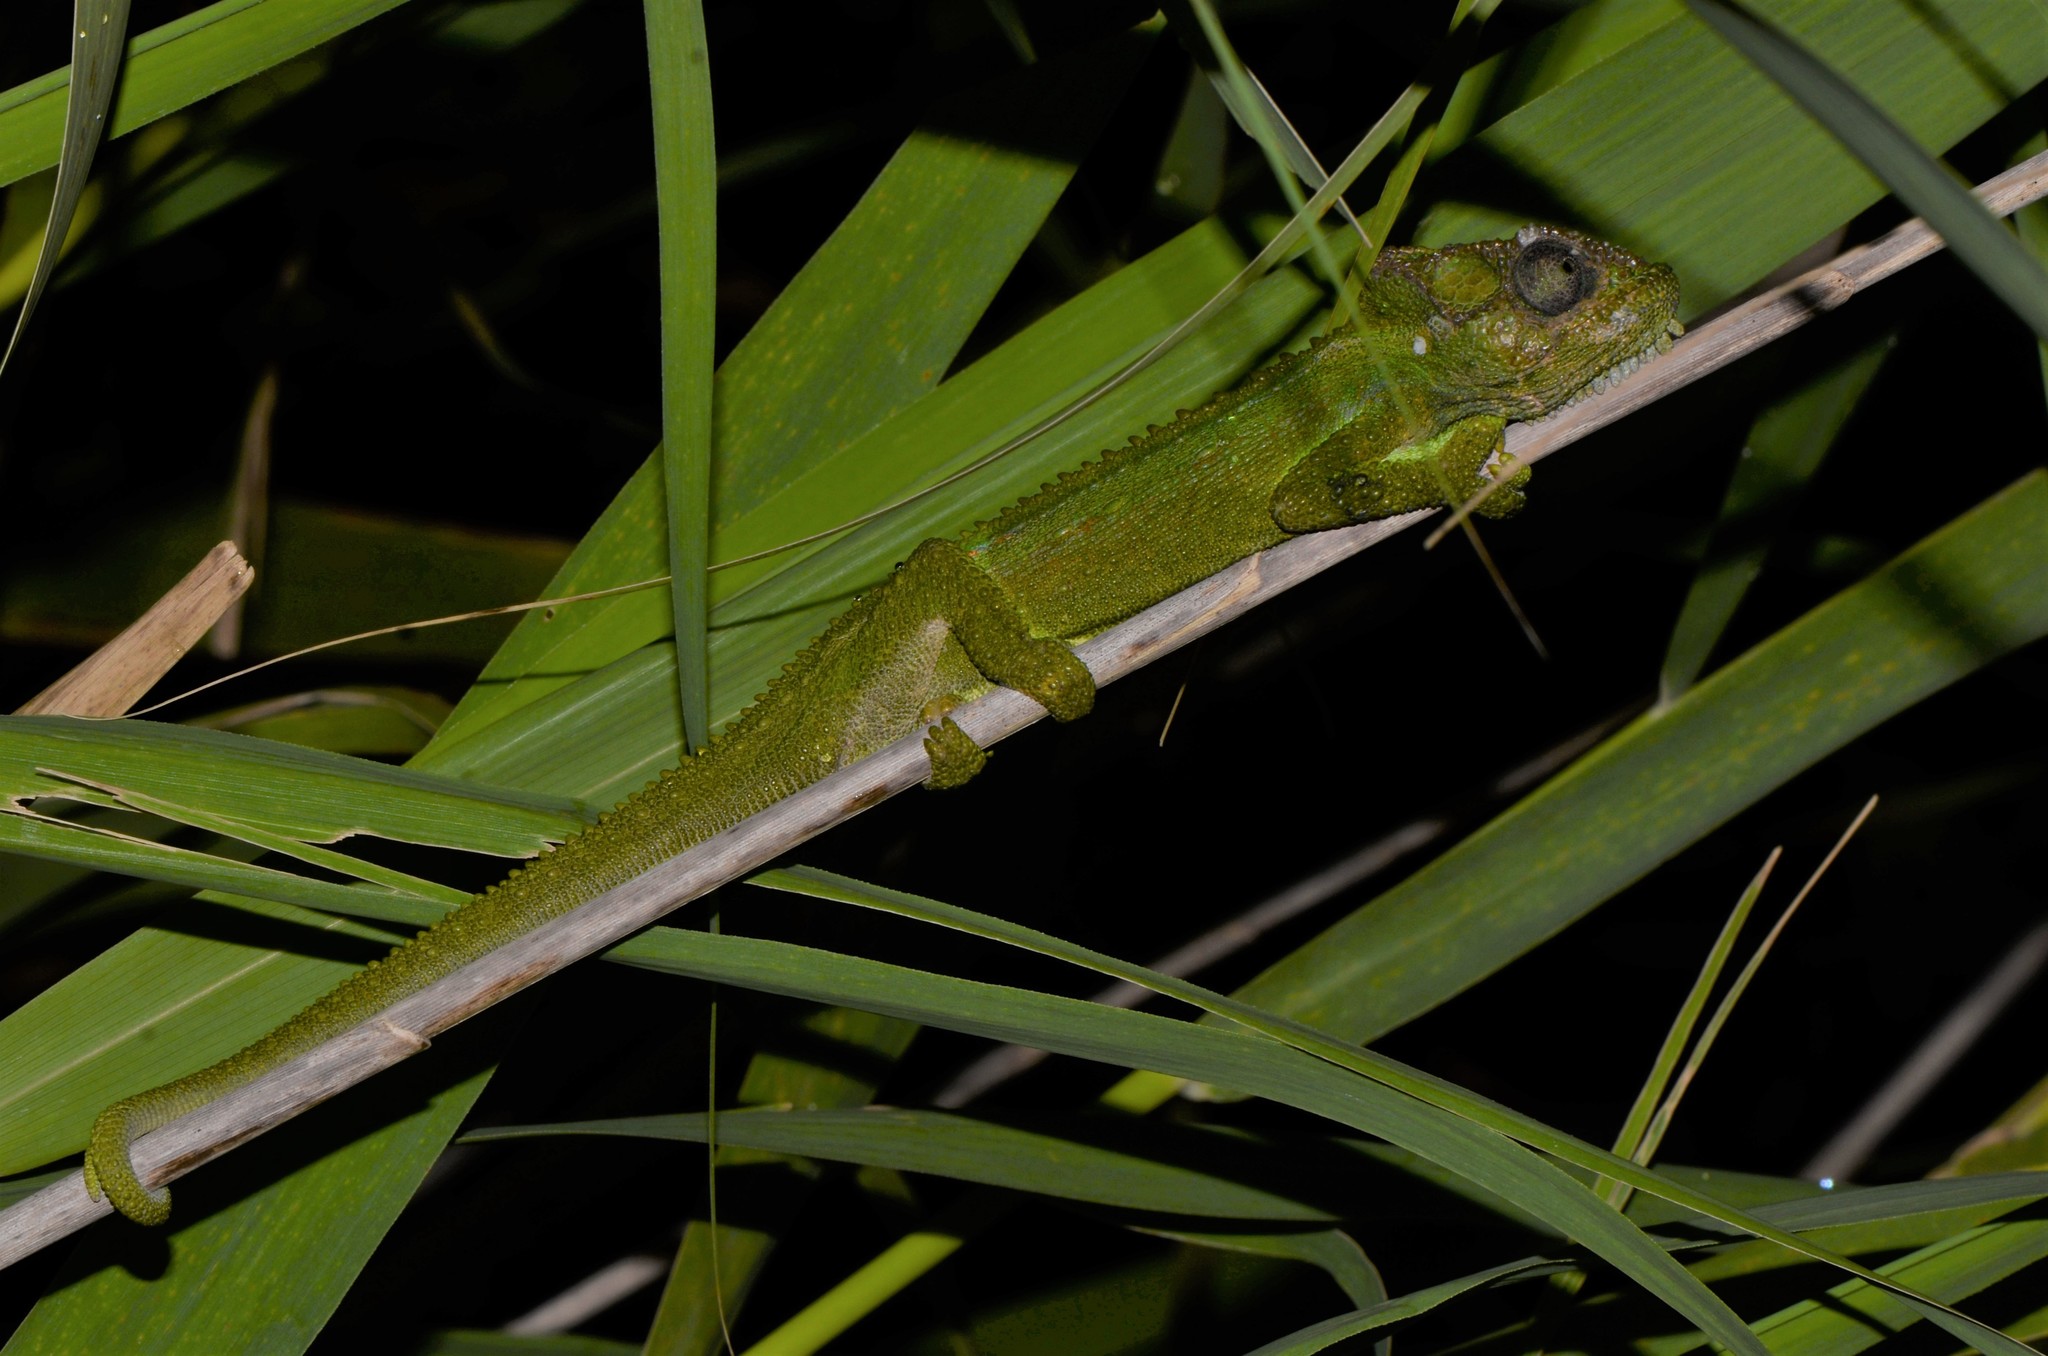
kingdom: Animalia
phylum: Chordata
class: Squamata
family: Chamaeleonidae
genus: Bradypodion
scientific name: Bradypodion pumilum
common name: Cape dwarf chameleon
